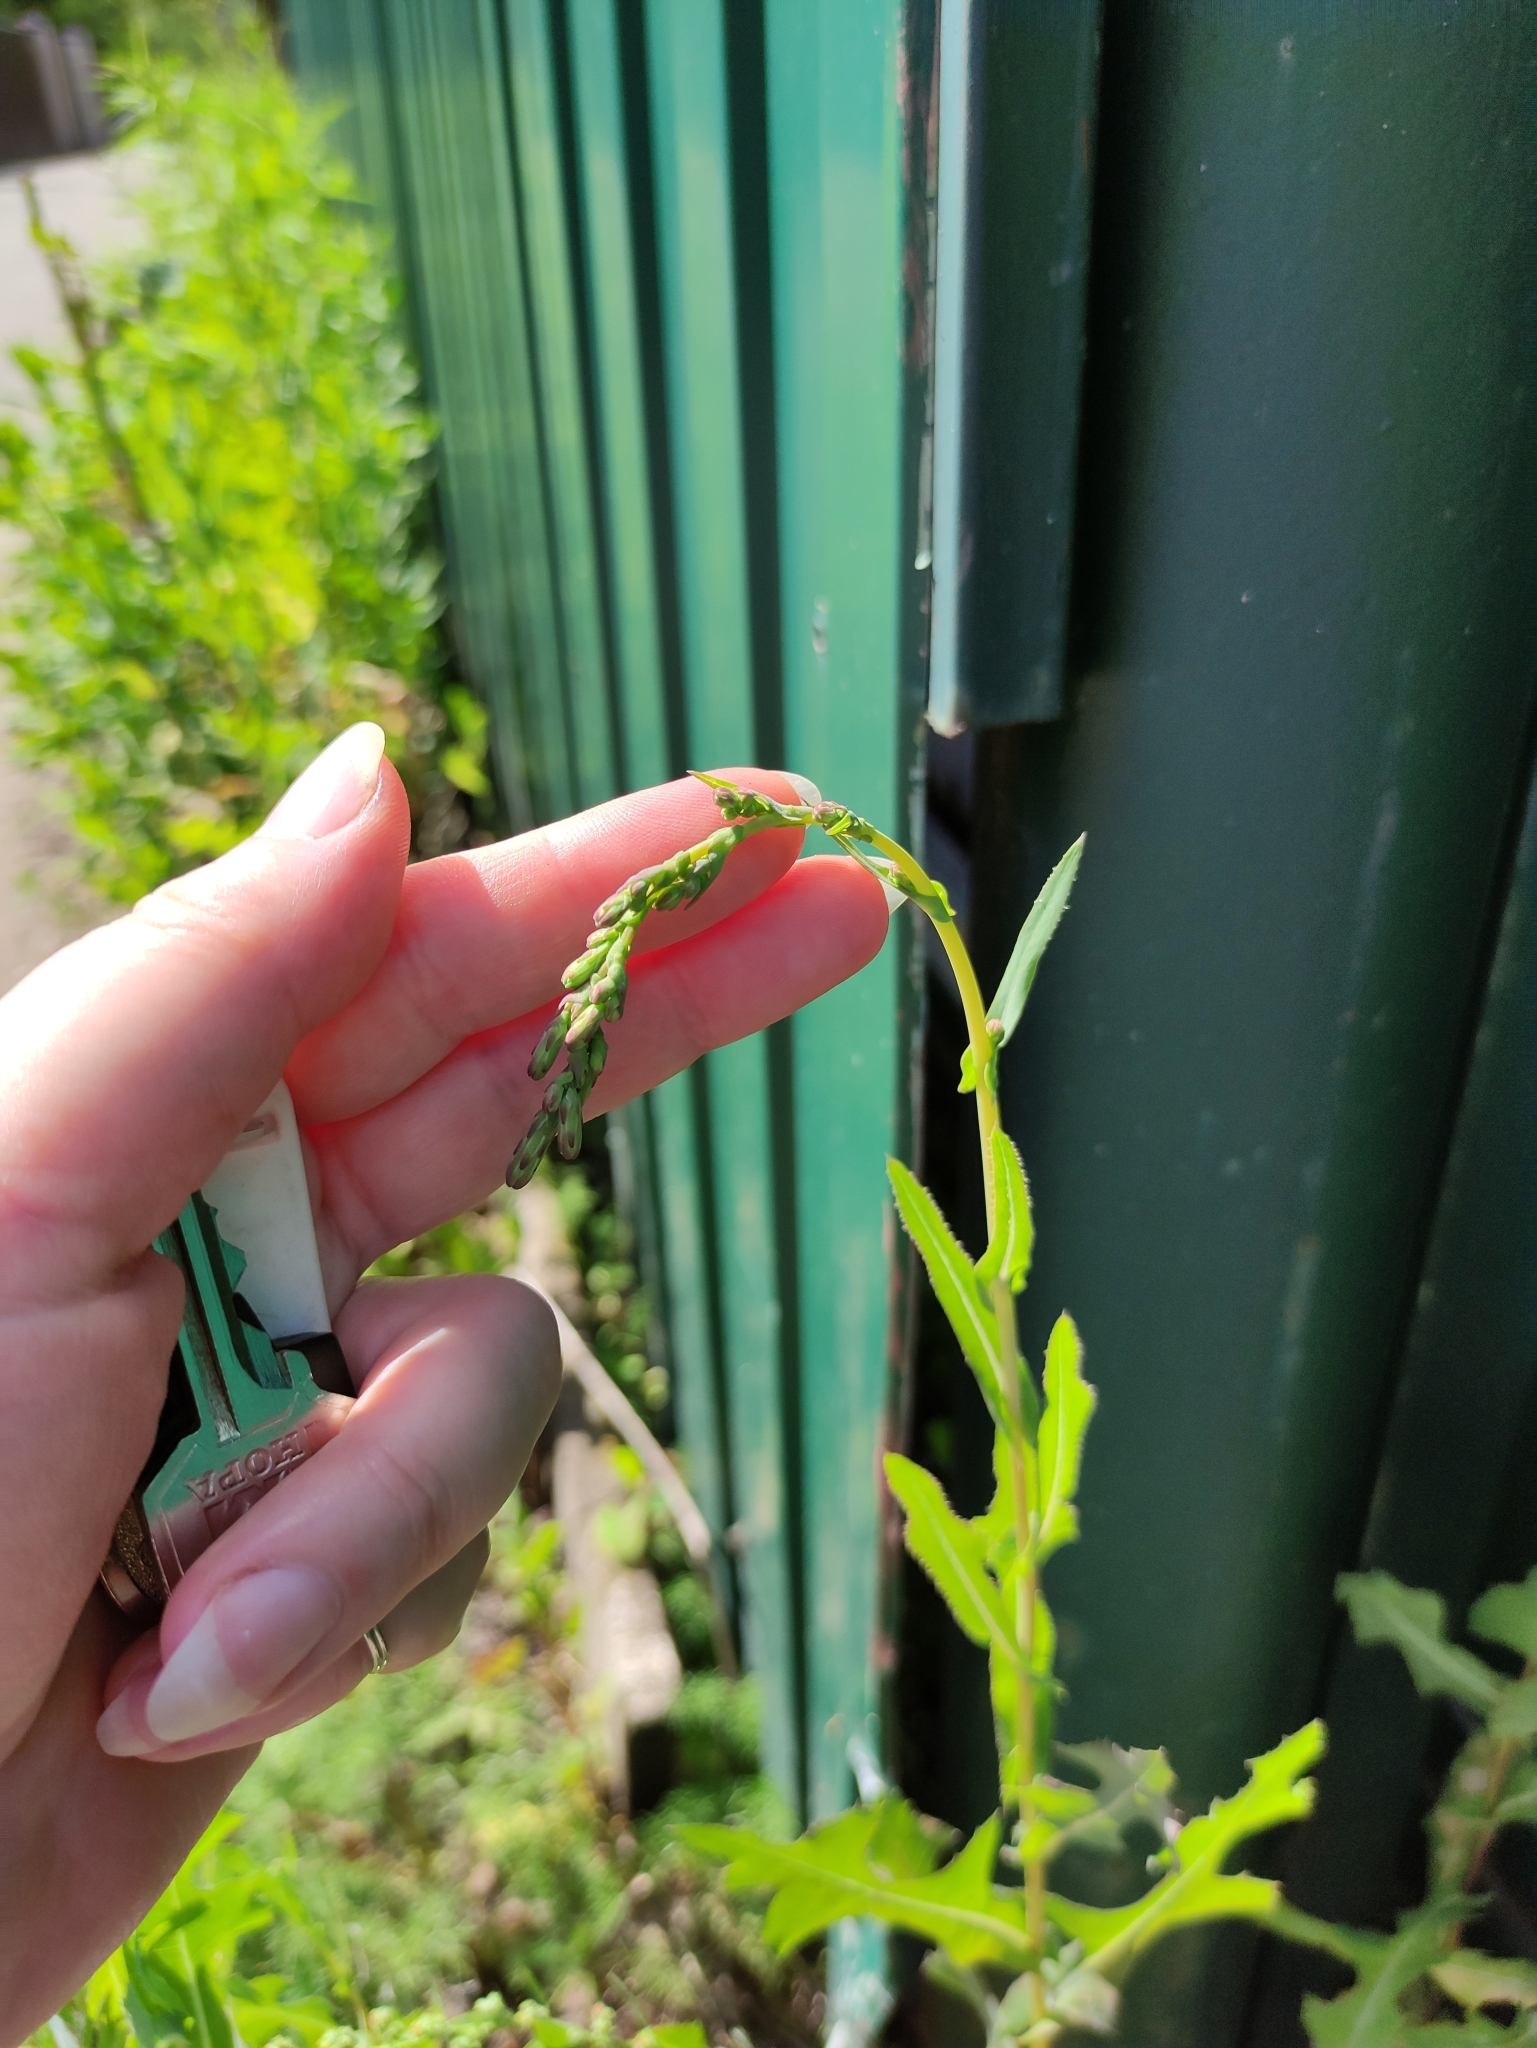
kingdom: Plantae
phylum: Tracheophyta
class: Magnoliopsida
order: Asterales
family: Asteraceae
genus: Lactuca
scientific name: Lactuca serriola
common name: Prickly lettuce
